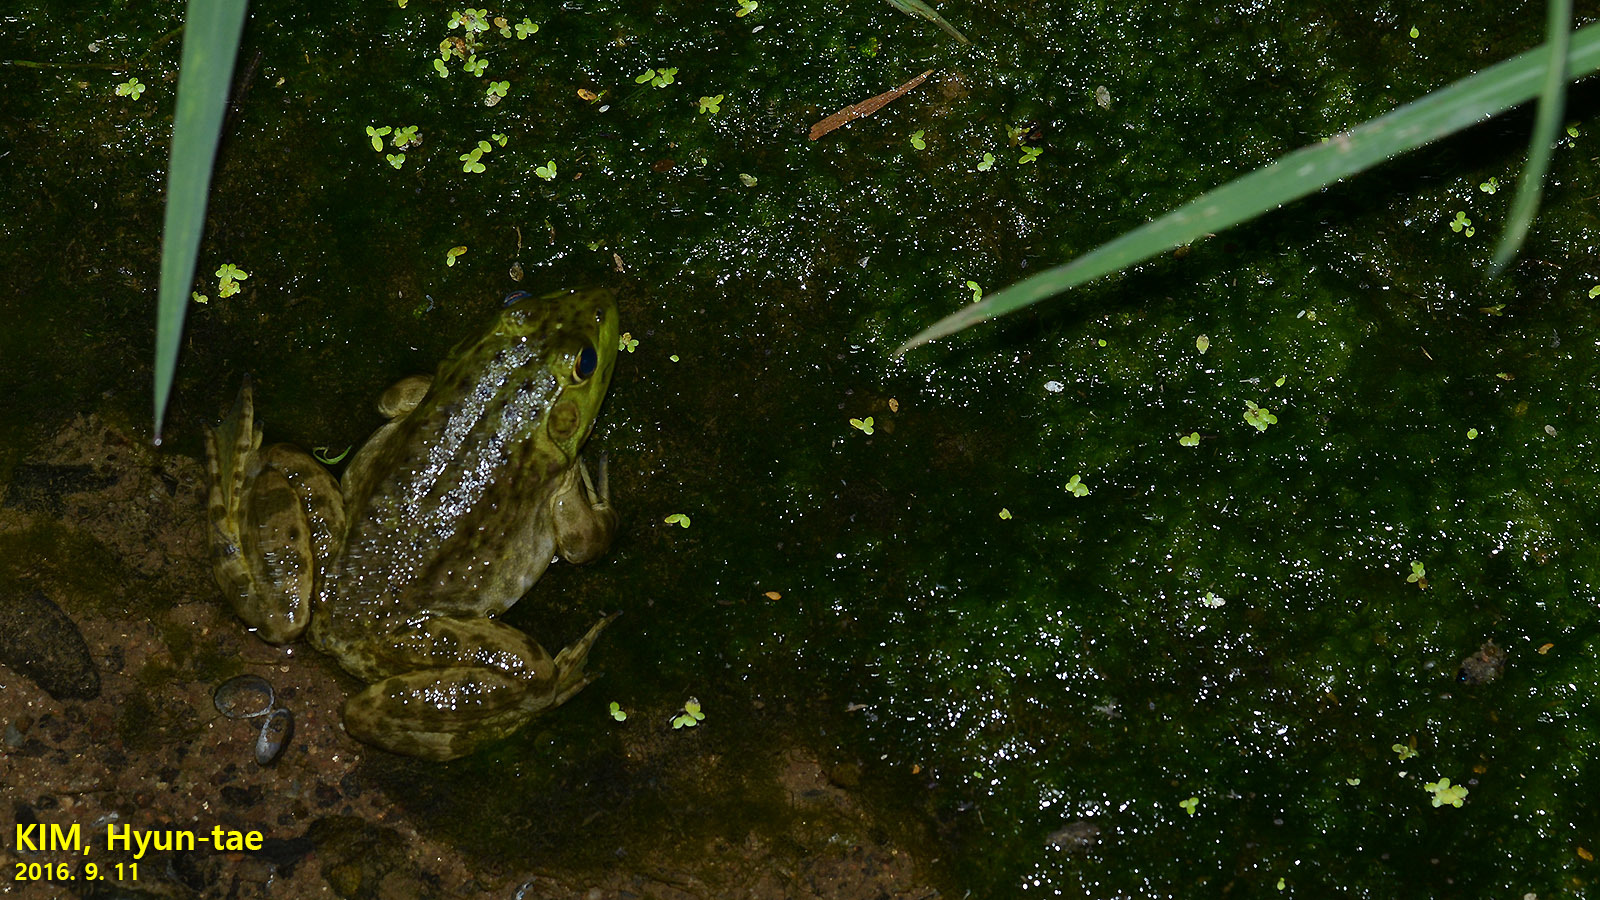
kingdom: Animalia
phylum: Chordata
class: Amphibia
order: Anura
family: Ranidae
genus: Lithobates
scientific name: Lithobates catesbeianus
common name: American bullfrog
